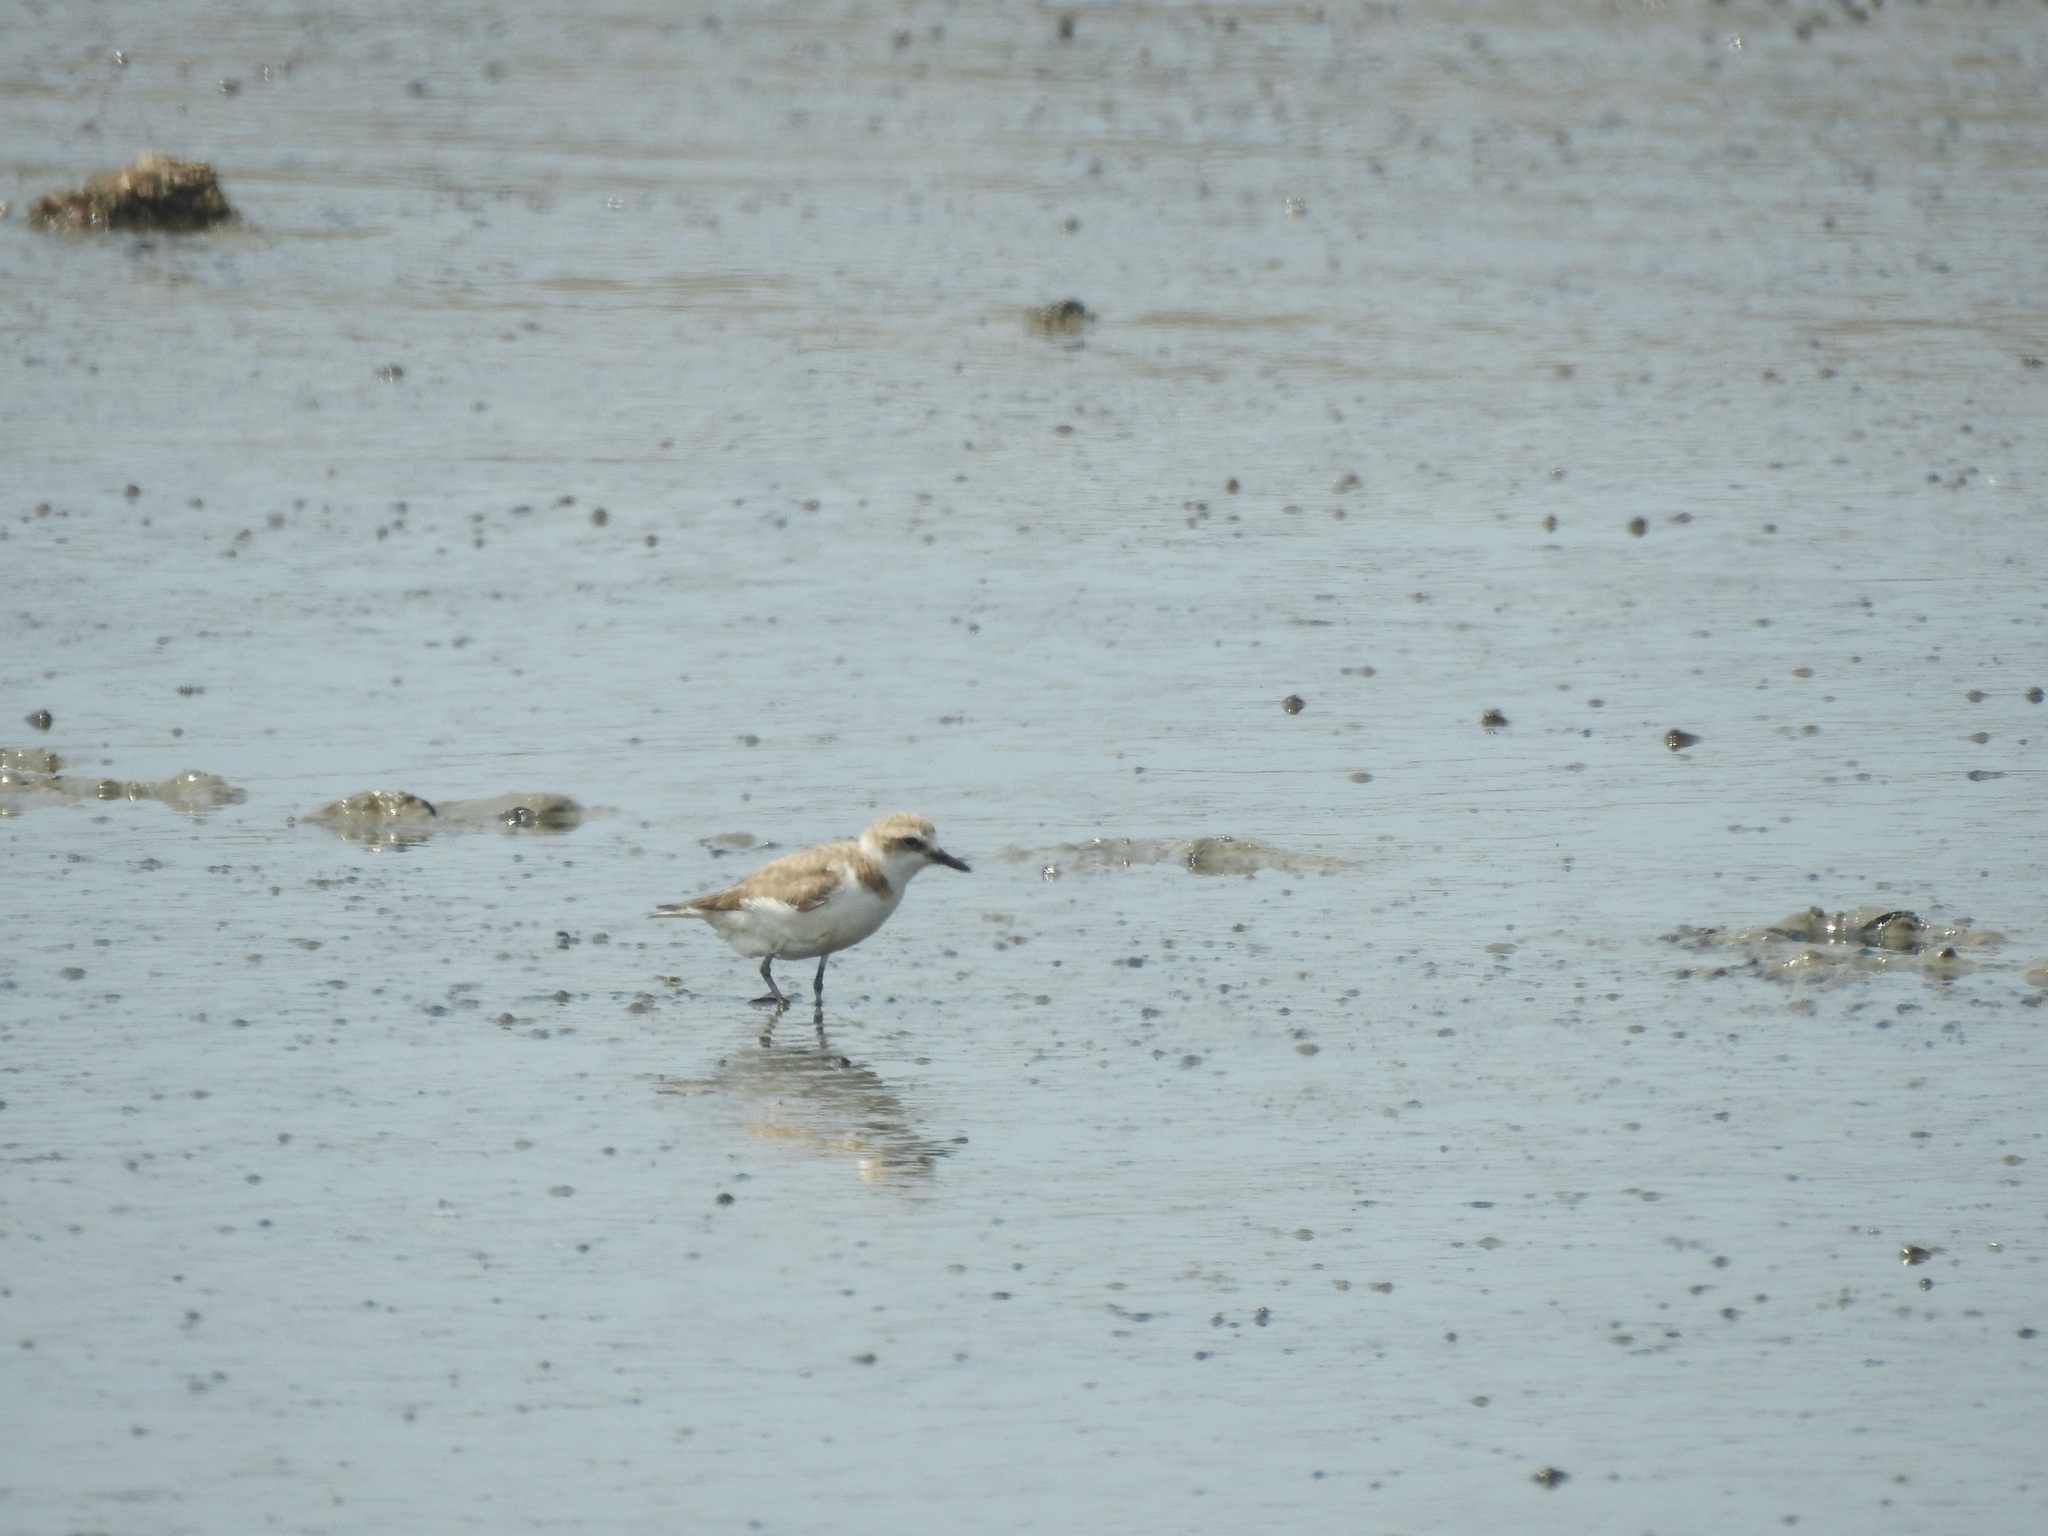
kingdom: Animalia
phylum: Chordata
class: Aves
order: Charadriiformes
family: Charadriidae
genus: Charadrius
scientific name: Charadrius alexandrinus
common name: Kentish plover
